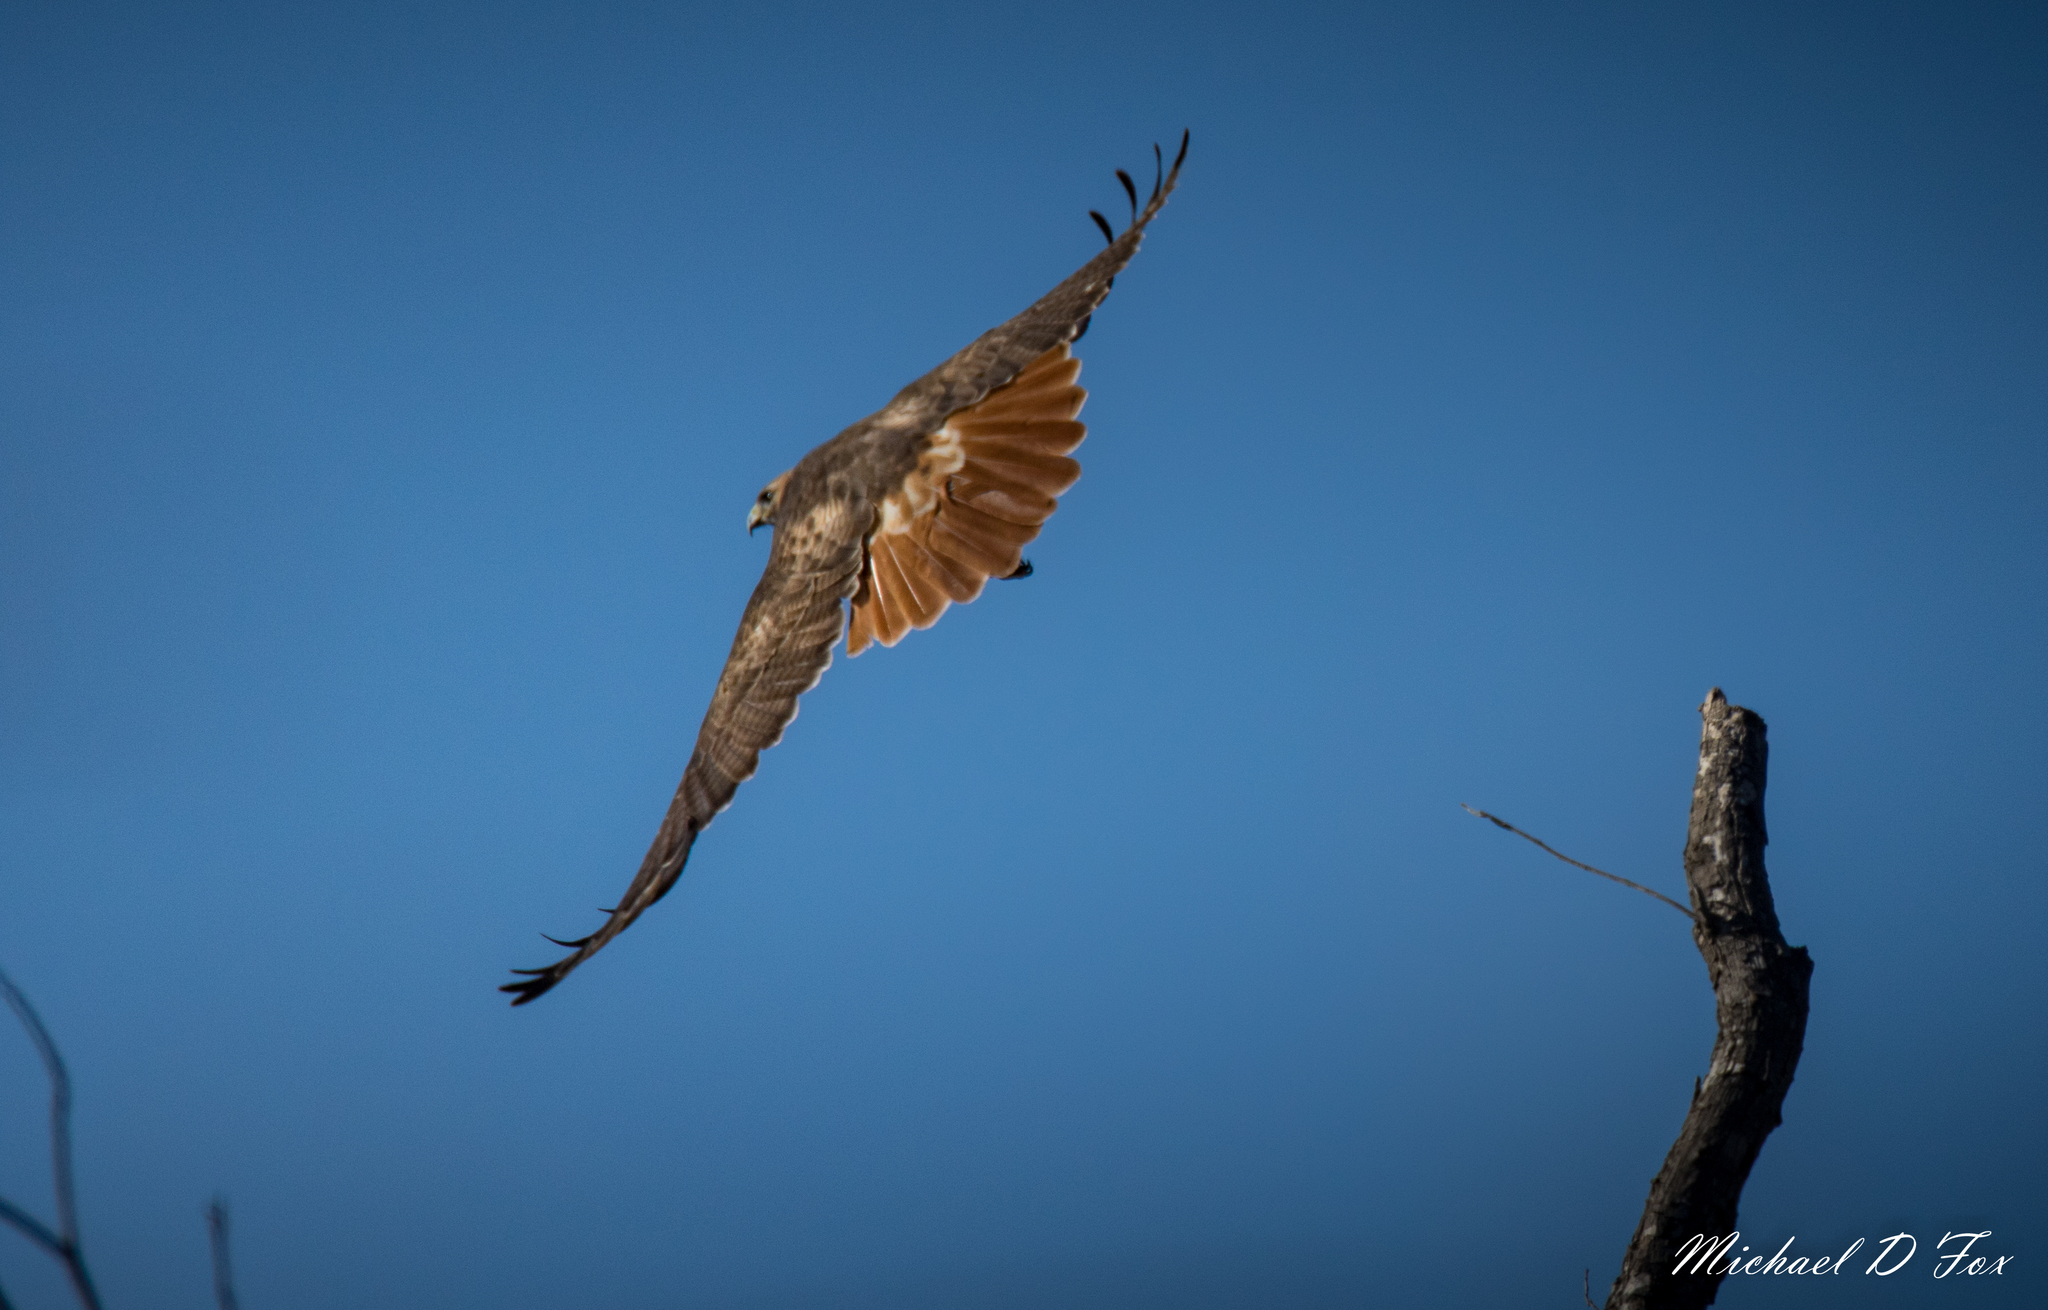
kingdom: Animalia
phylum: Chordata
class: Aves
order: Accipitriformes
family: Accipitridae
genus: Buteo
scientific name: Buteo jamaicensis
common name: Red-tailed hawk
